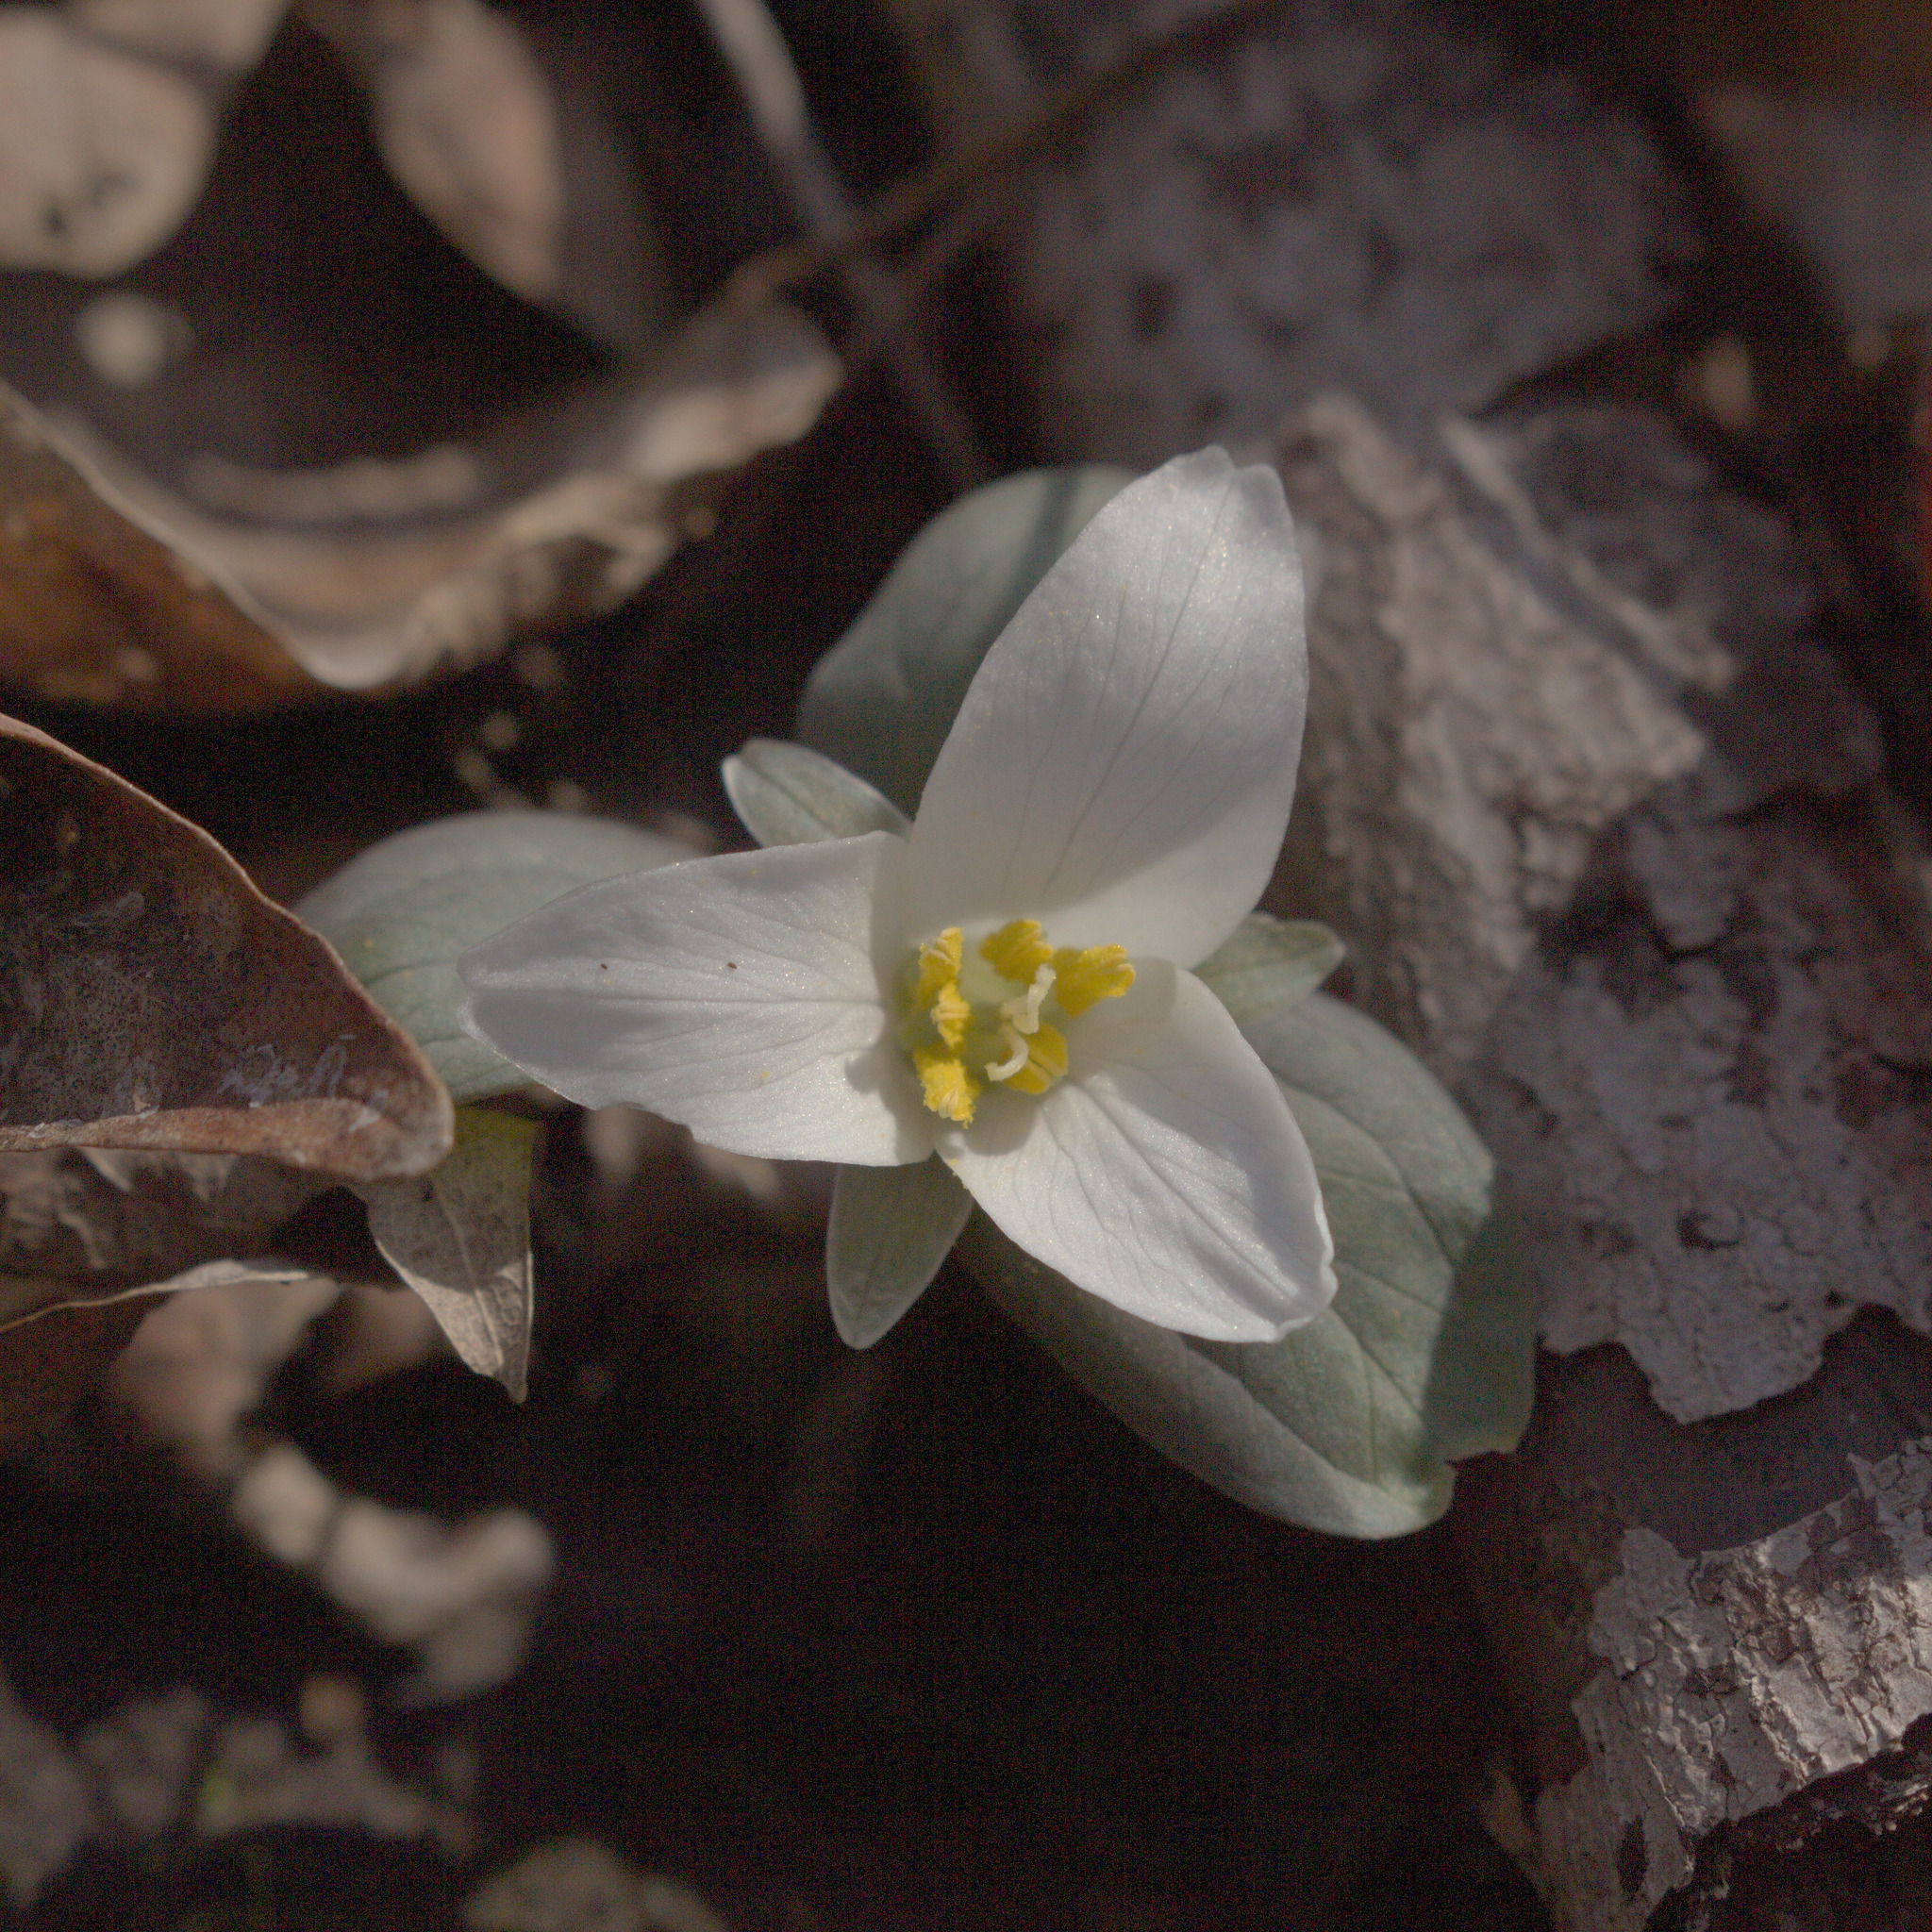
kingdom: Plantae
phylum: Tracheophyta
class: Liliopsida
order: Liliales
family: Melanthiaceae
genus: Trillium
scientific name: Trillium nivale
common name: Dwarf white trillium
